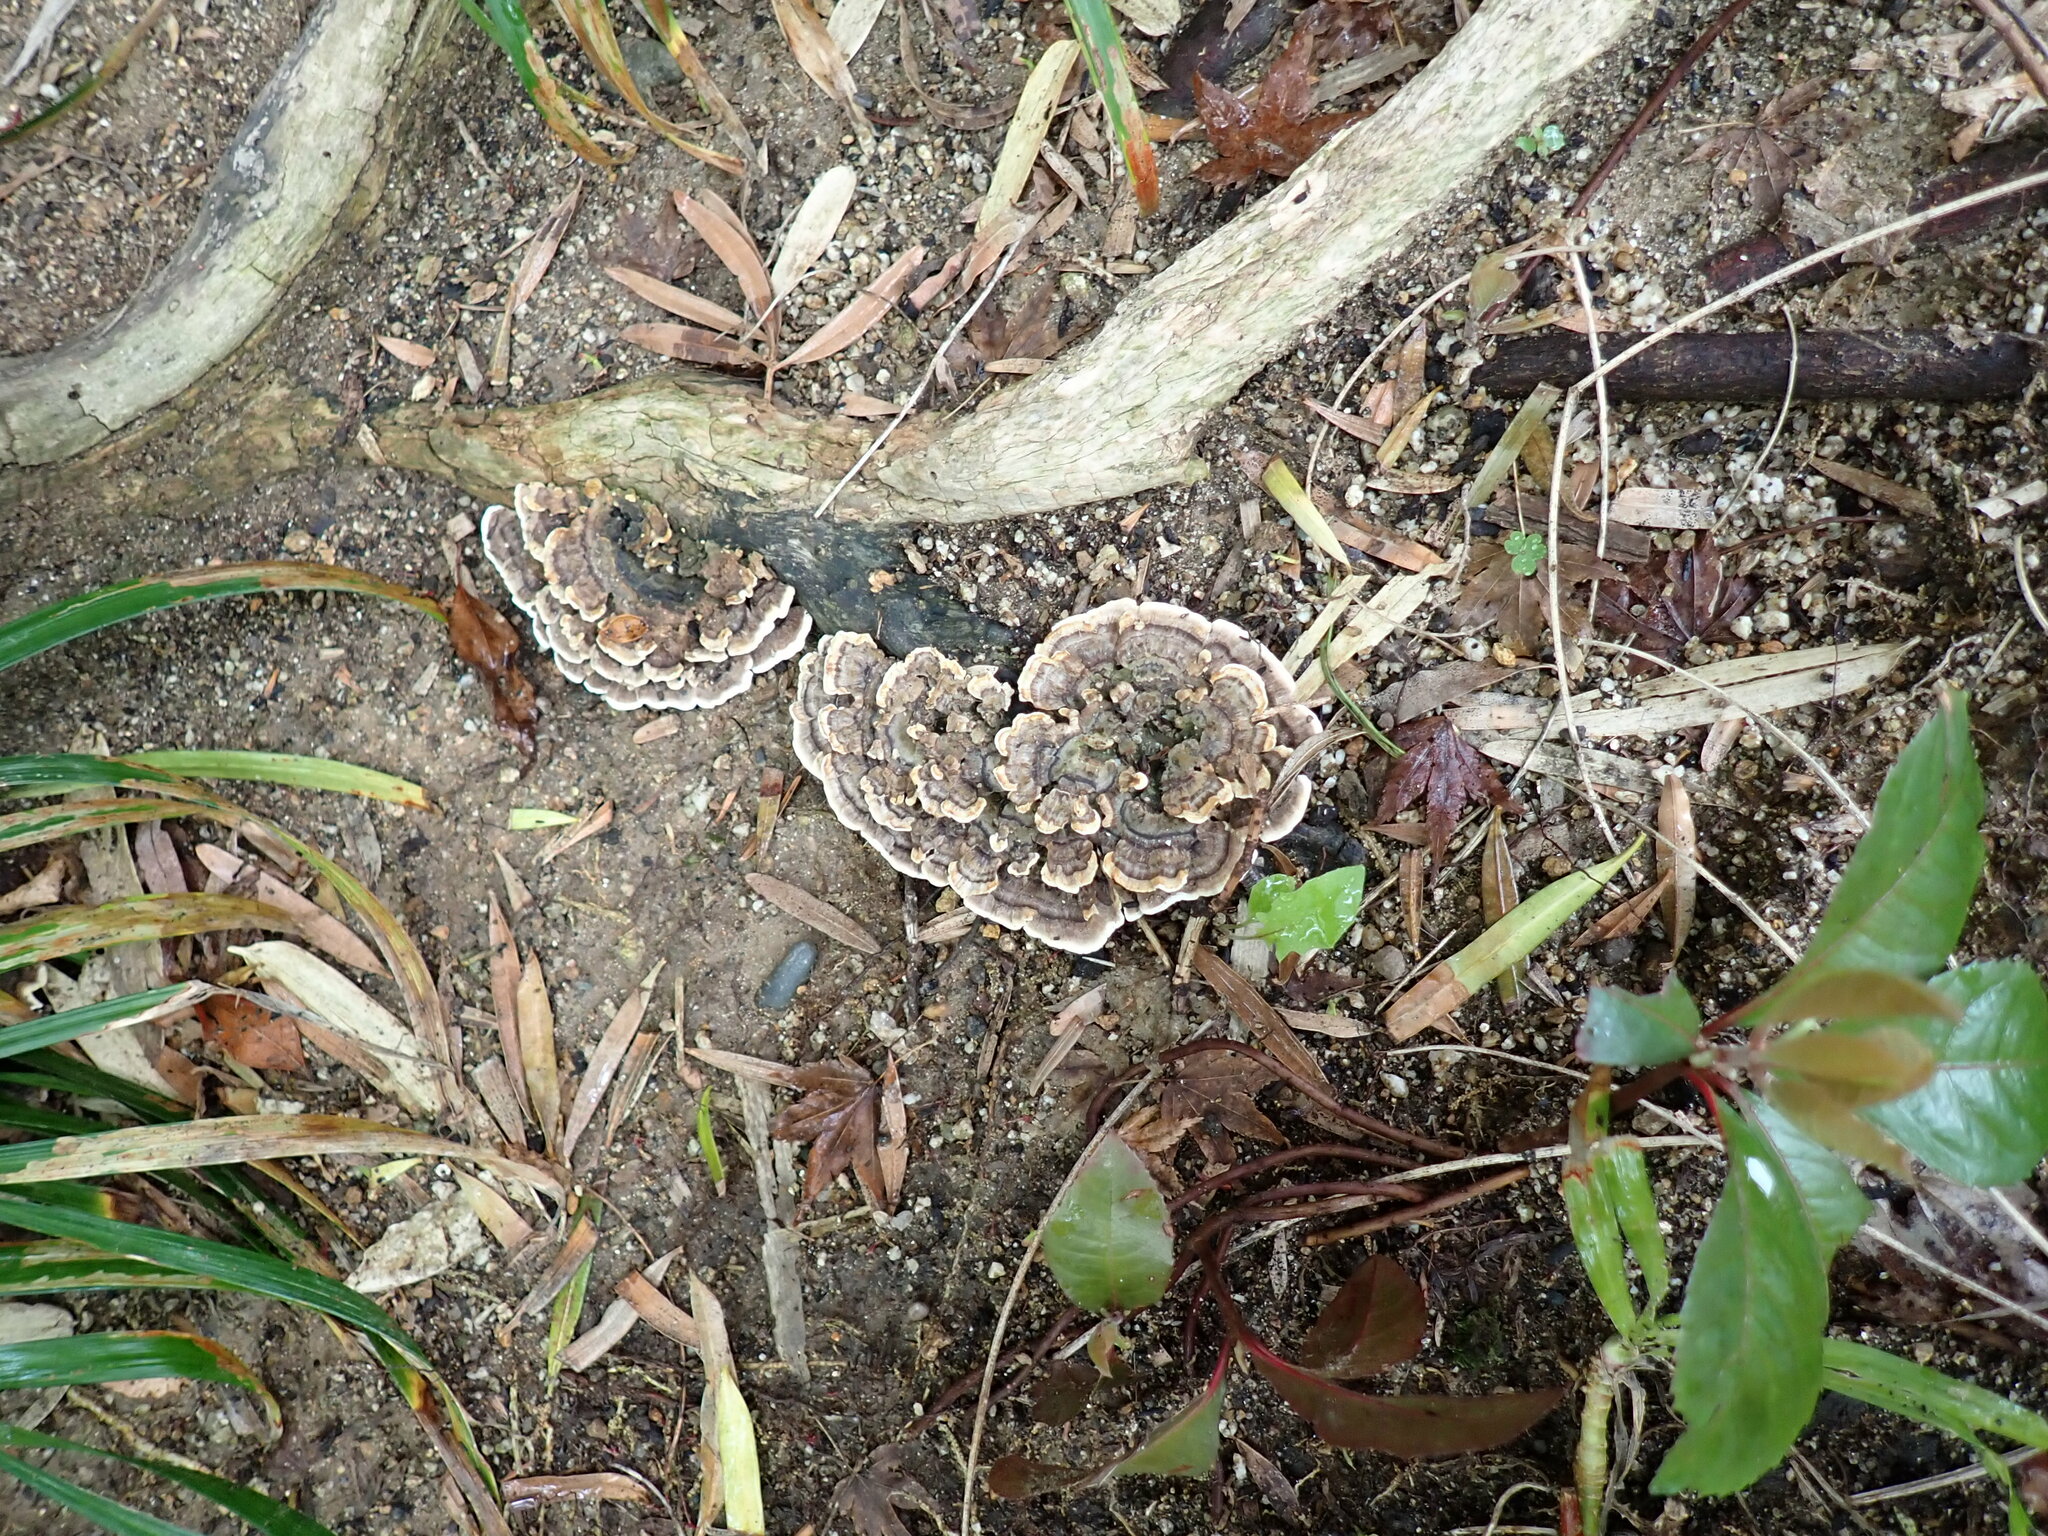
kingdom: Fungi
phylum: Basidiomycota
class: Agaricomycetes
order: Polyporales
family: Polyporaceae
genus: Trametes
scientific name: Trametes versicolor
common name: Turkeytail
